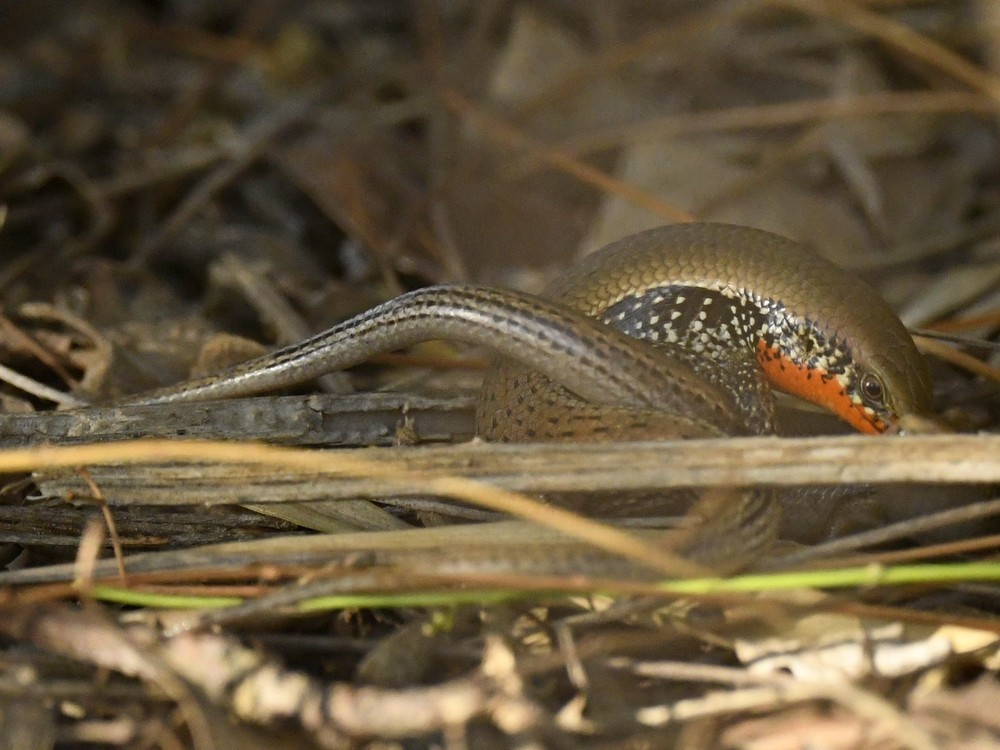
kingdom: Animalia
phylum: Chordata
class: Squamata
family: Scincidae
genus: Eutropis
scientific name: Eutropis macularia
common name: Bronze mabuya
